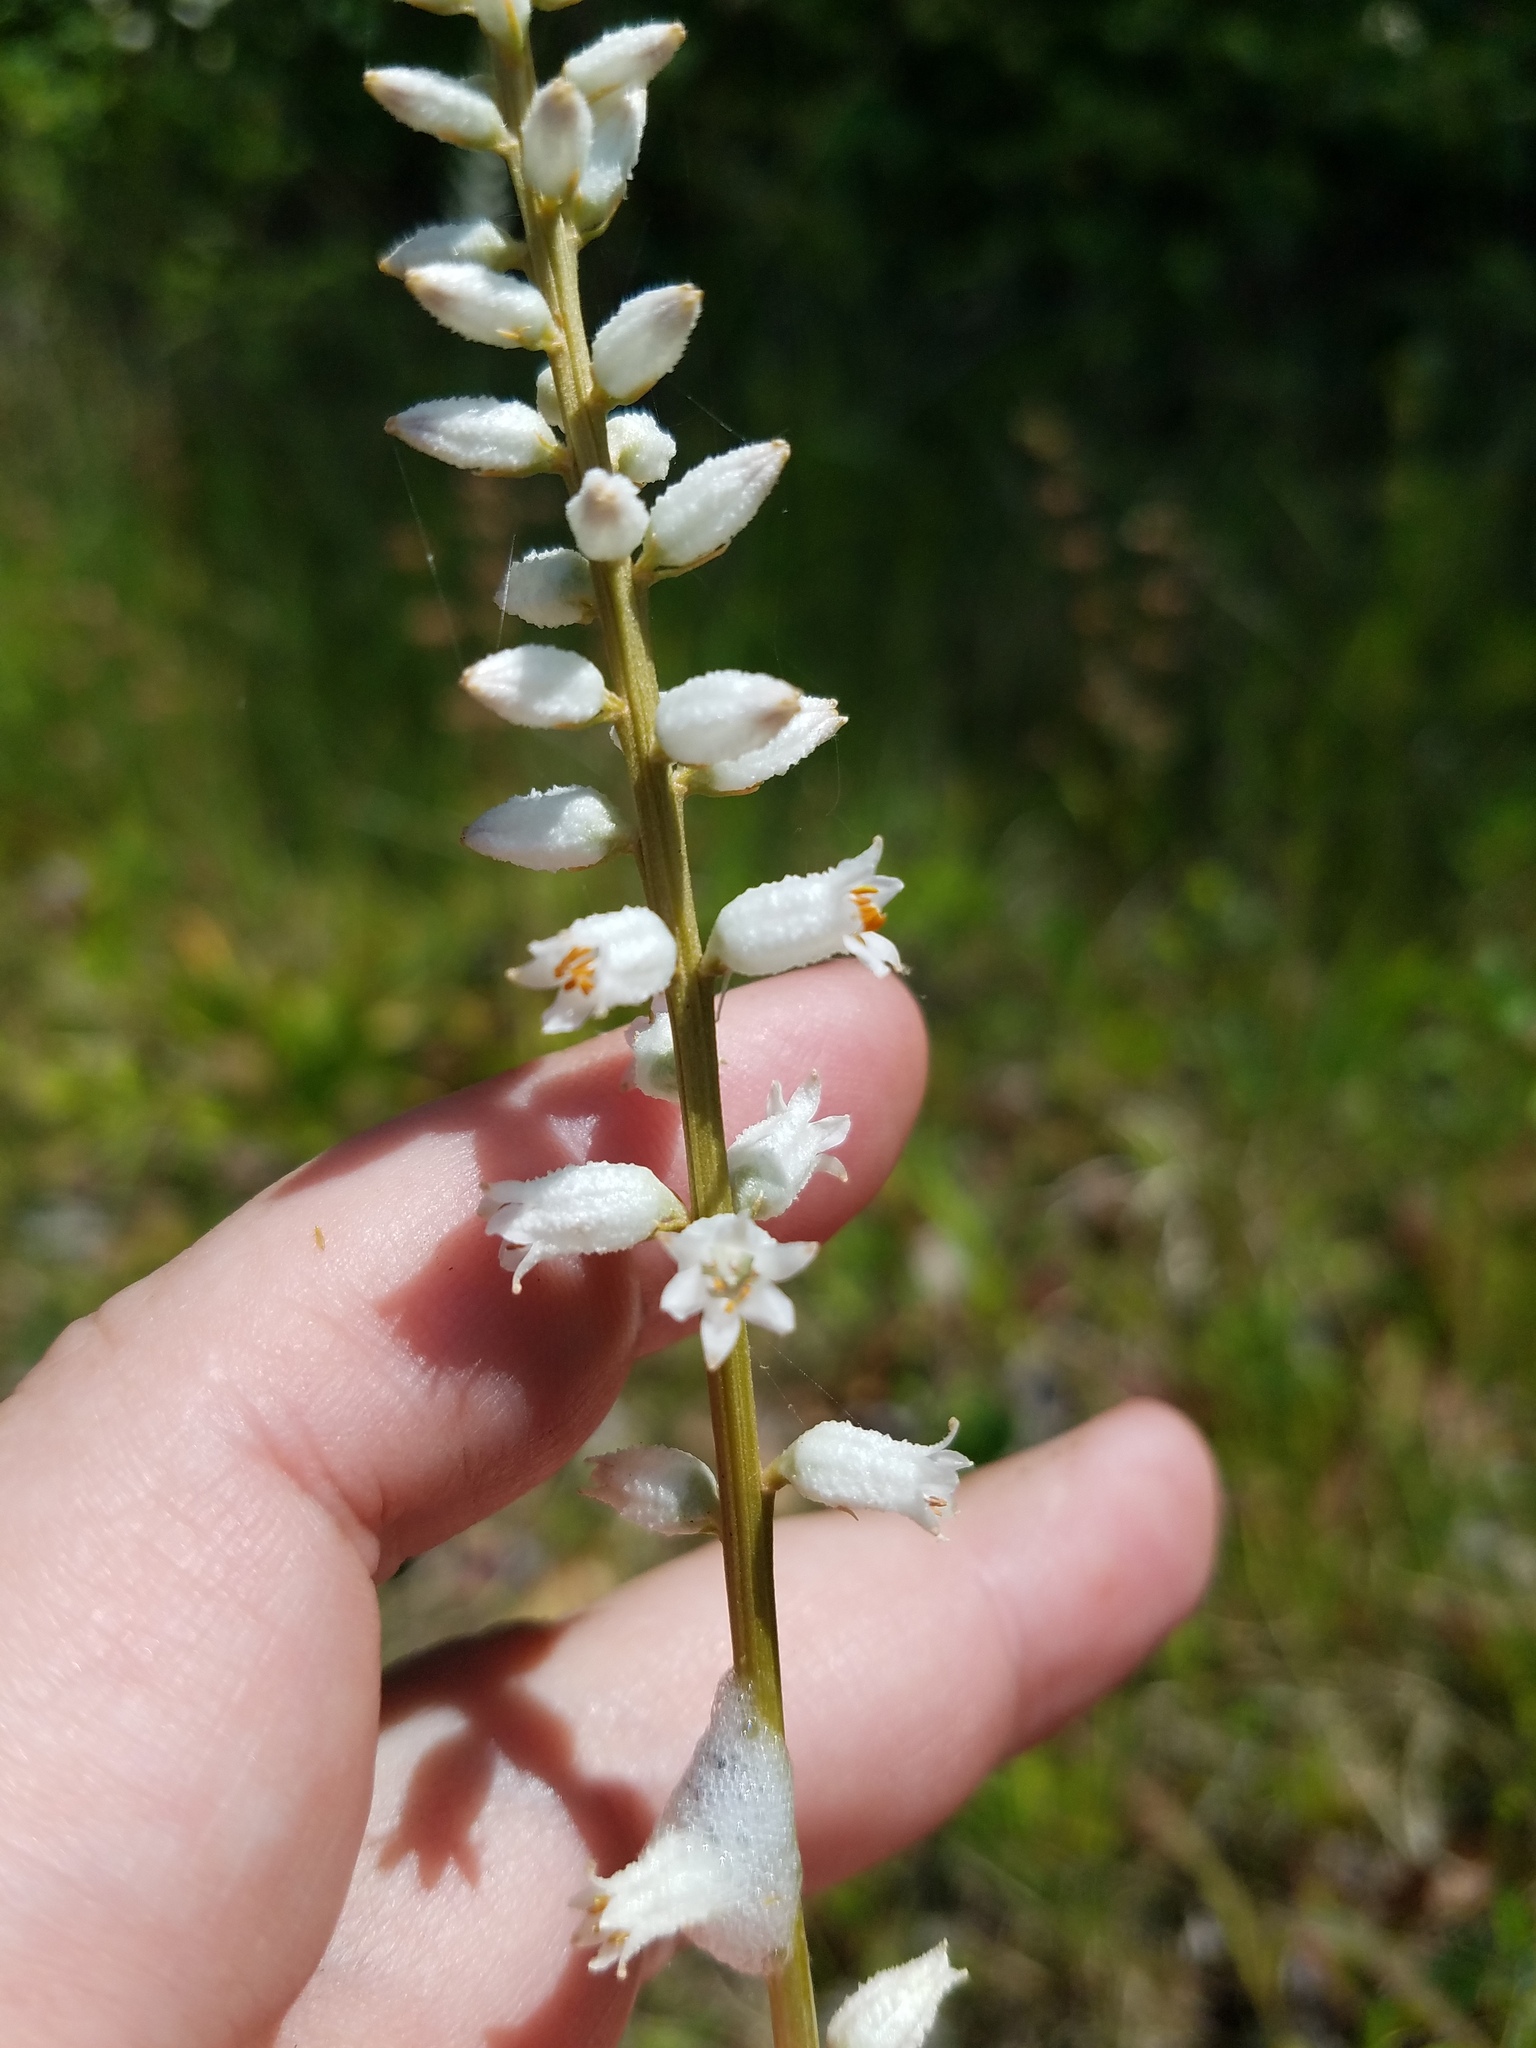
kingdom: Plantae
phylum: Tracheophyta
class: Liliopsida
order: Dioscoreales
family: Nartheciaceae
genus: Aletris
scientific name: Aletris farinosa
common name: Colicroot
